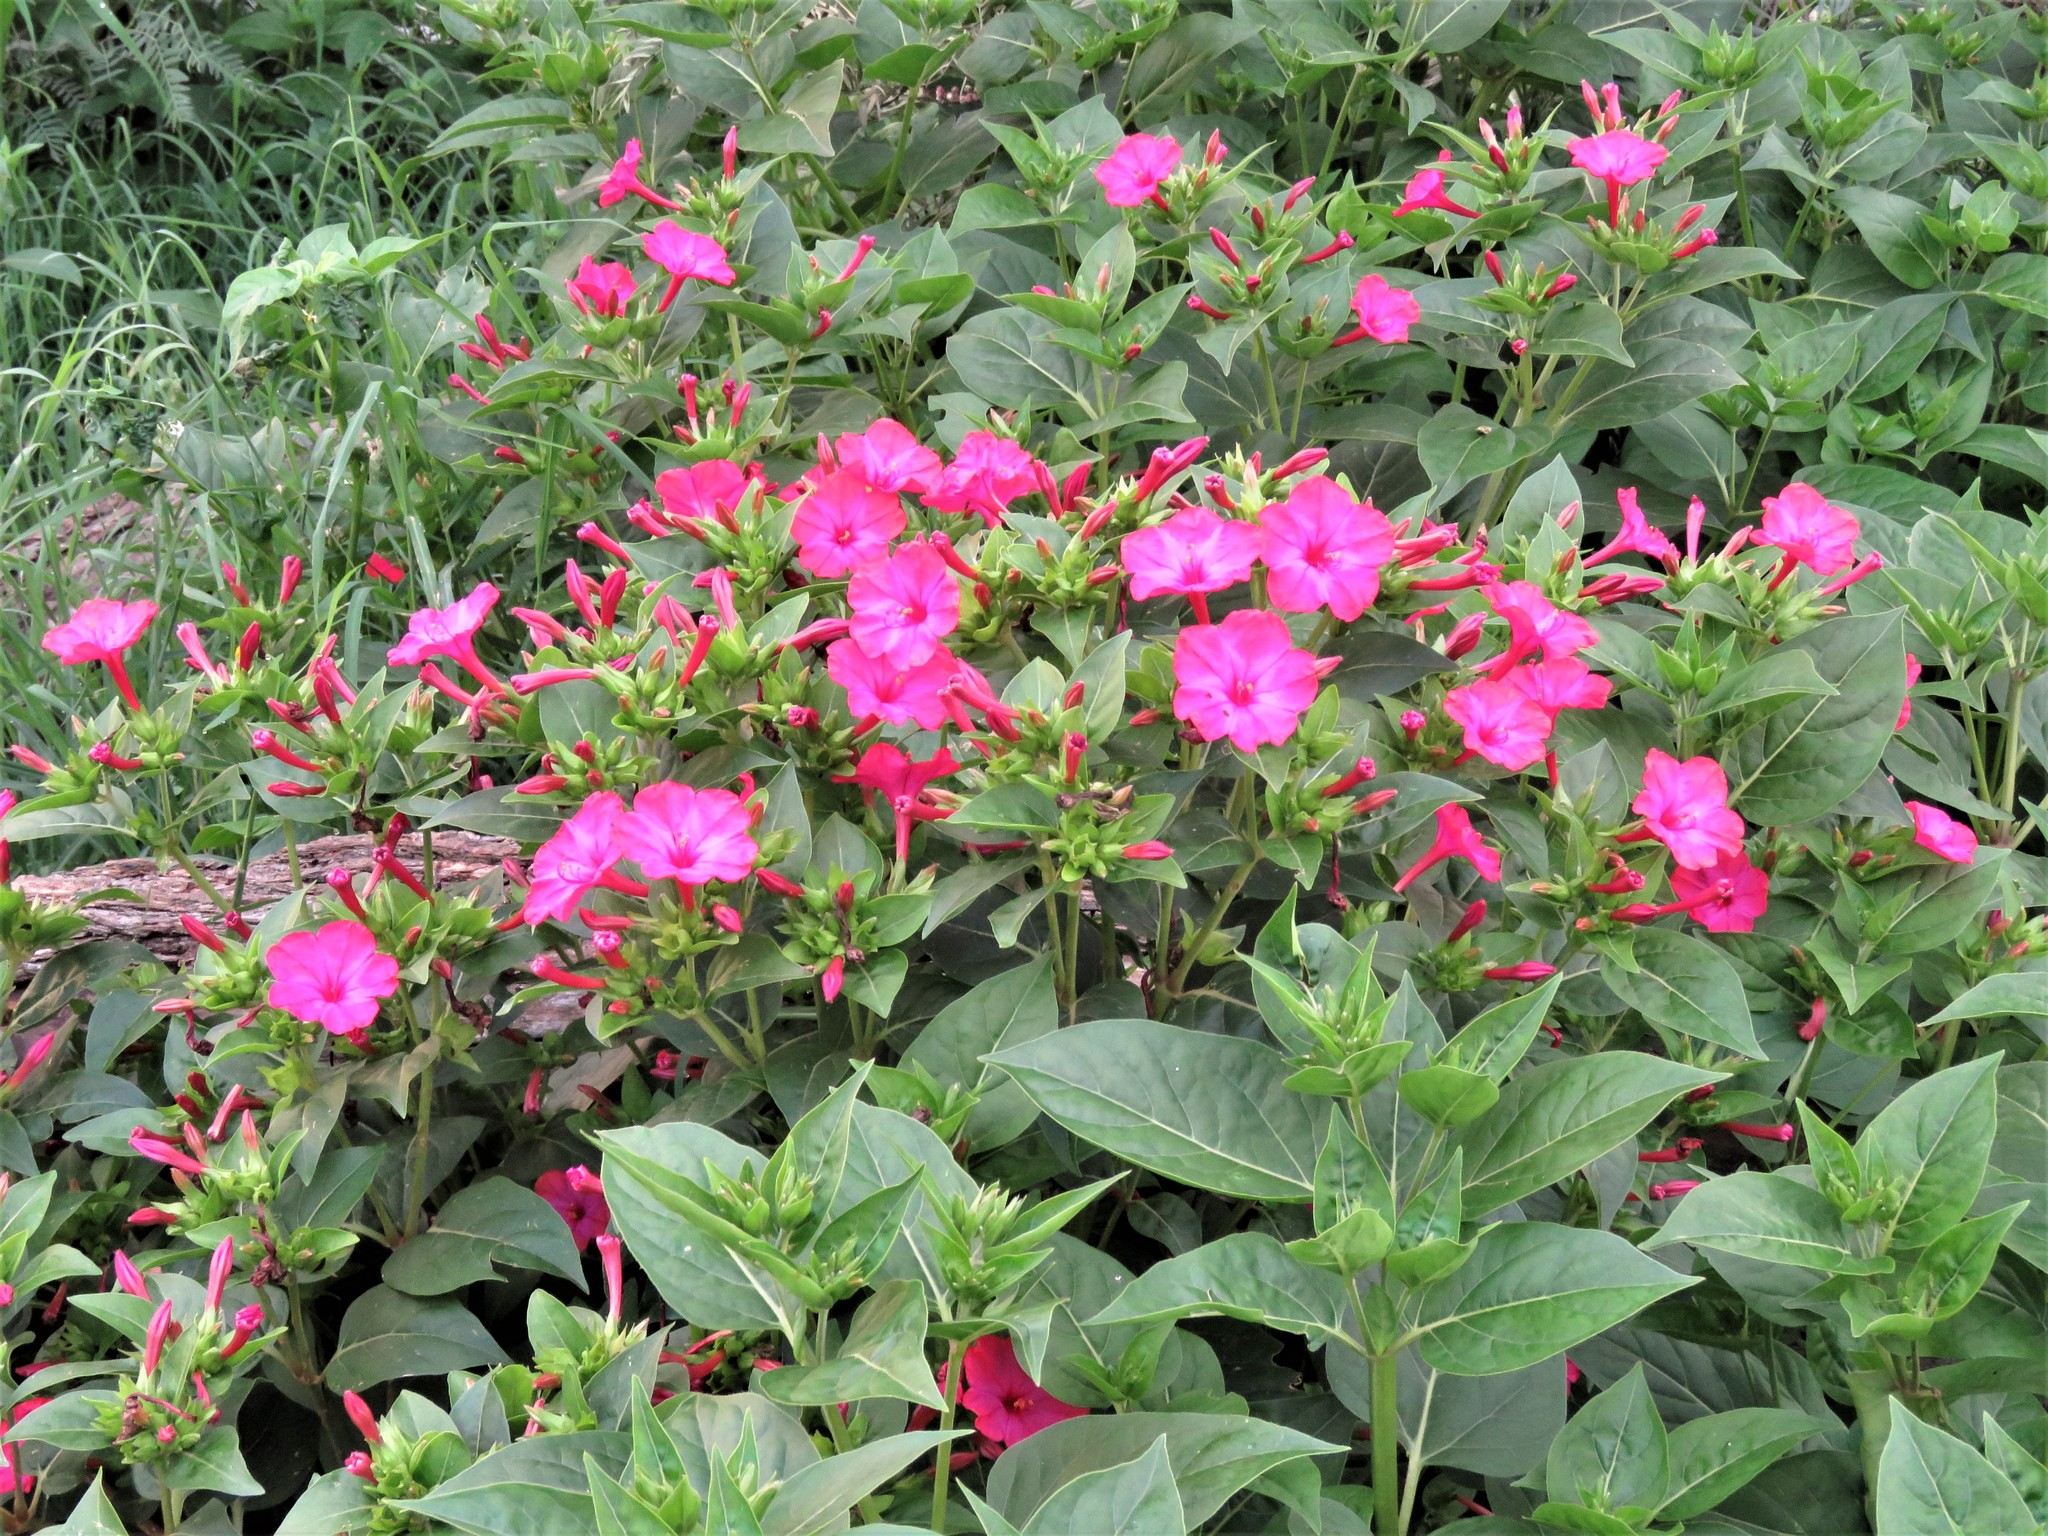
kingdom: Plantae
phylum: Tracheophyta
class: Magnoliopsida
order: Caryophyllales
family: Nyctaginaceae
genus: Mirabilis
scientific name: Mirabilis jalapa
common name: Marvel-of-peru
